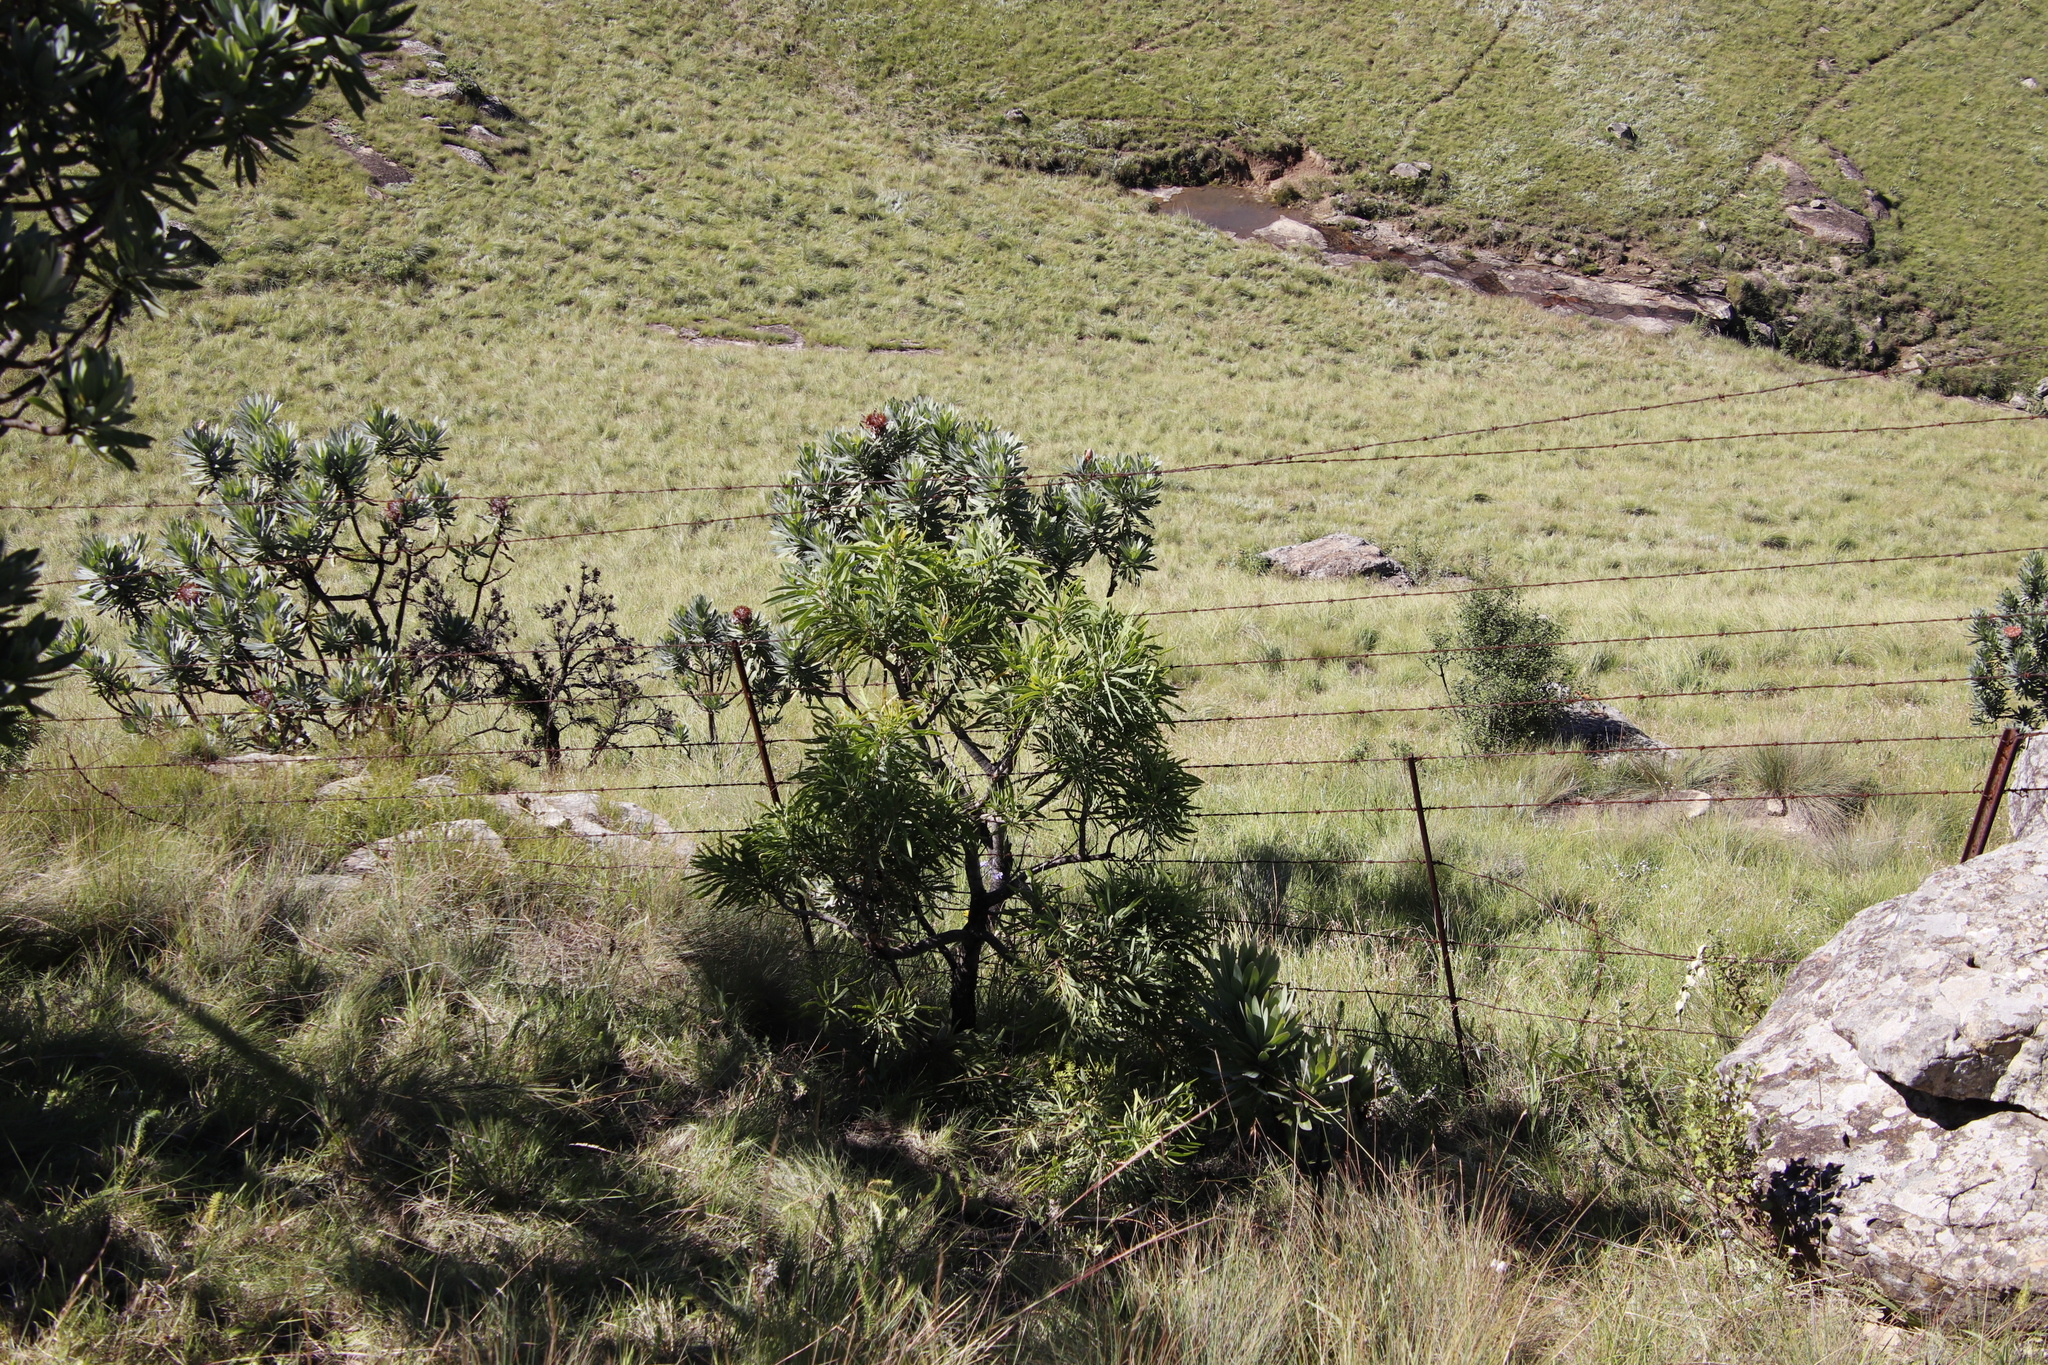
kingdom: Plantae
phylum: Tracheophyta
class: Magnoliopsida
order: Proteales
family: Proteaceae
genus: Protea
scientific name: Protea caffra
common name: Common sugarbush
